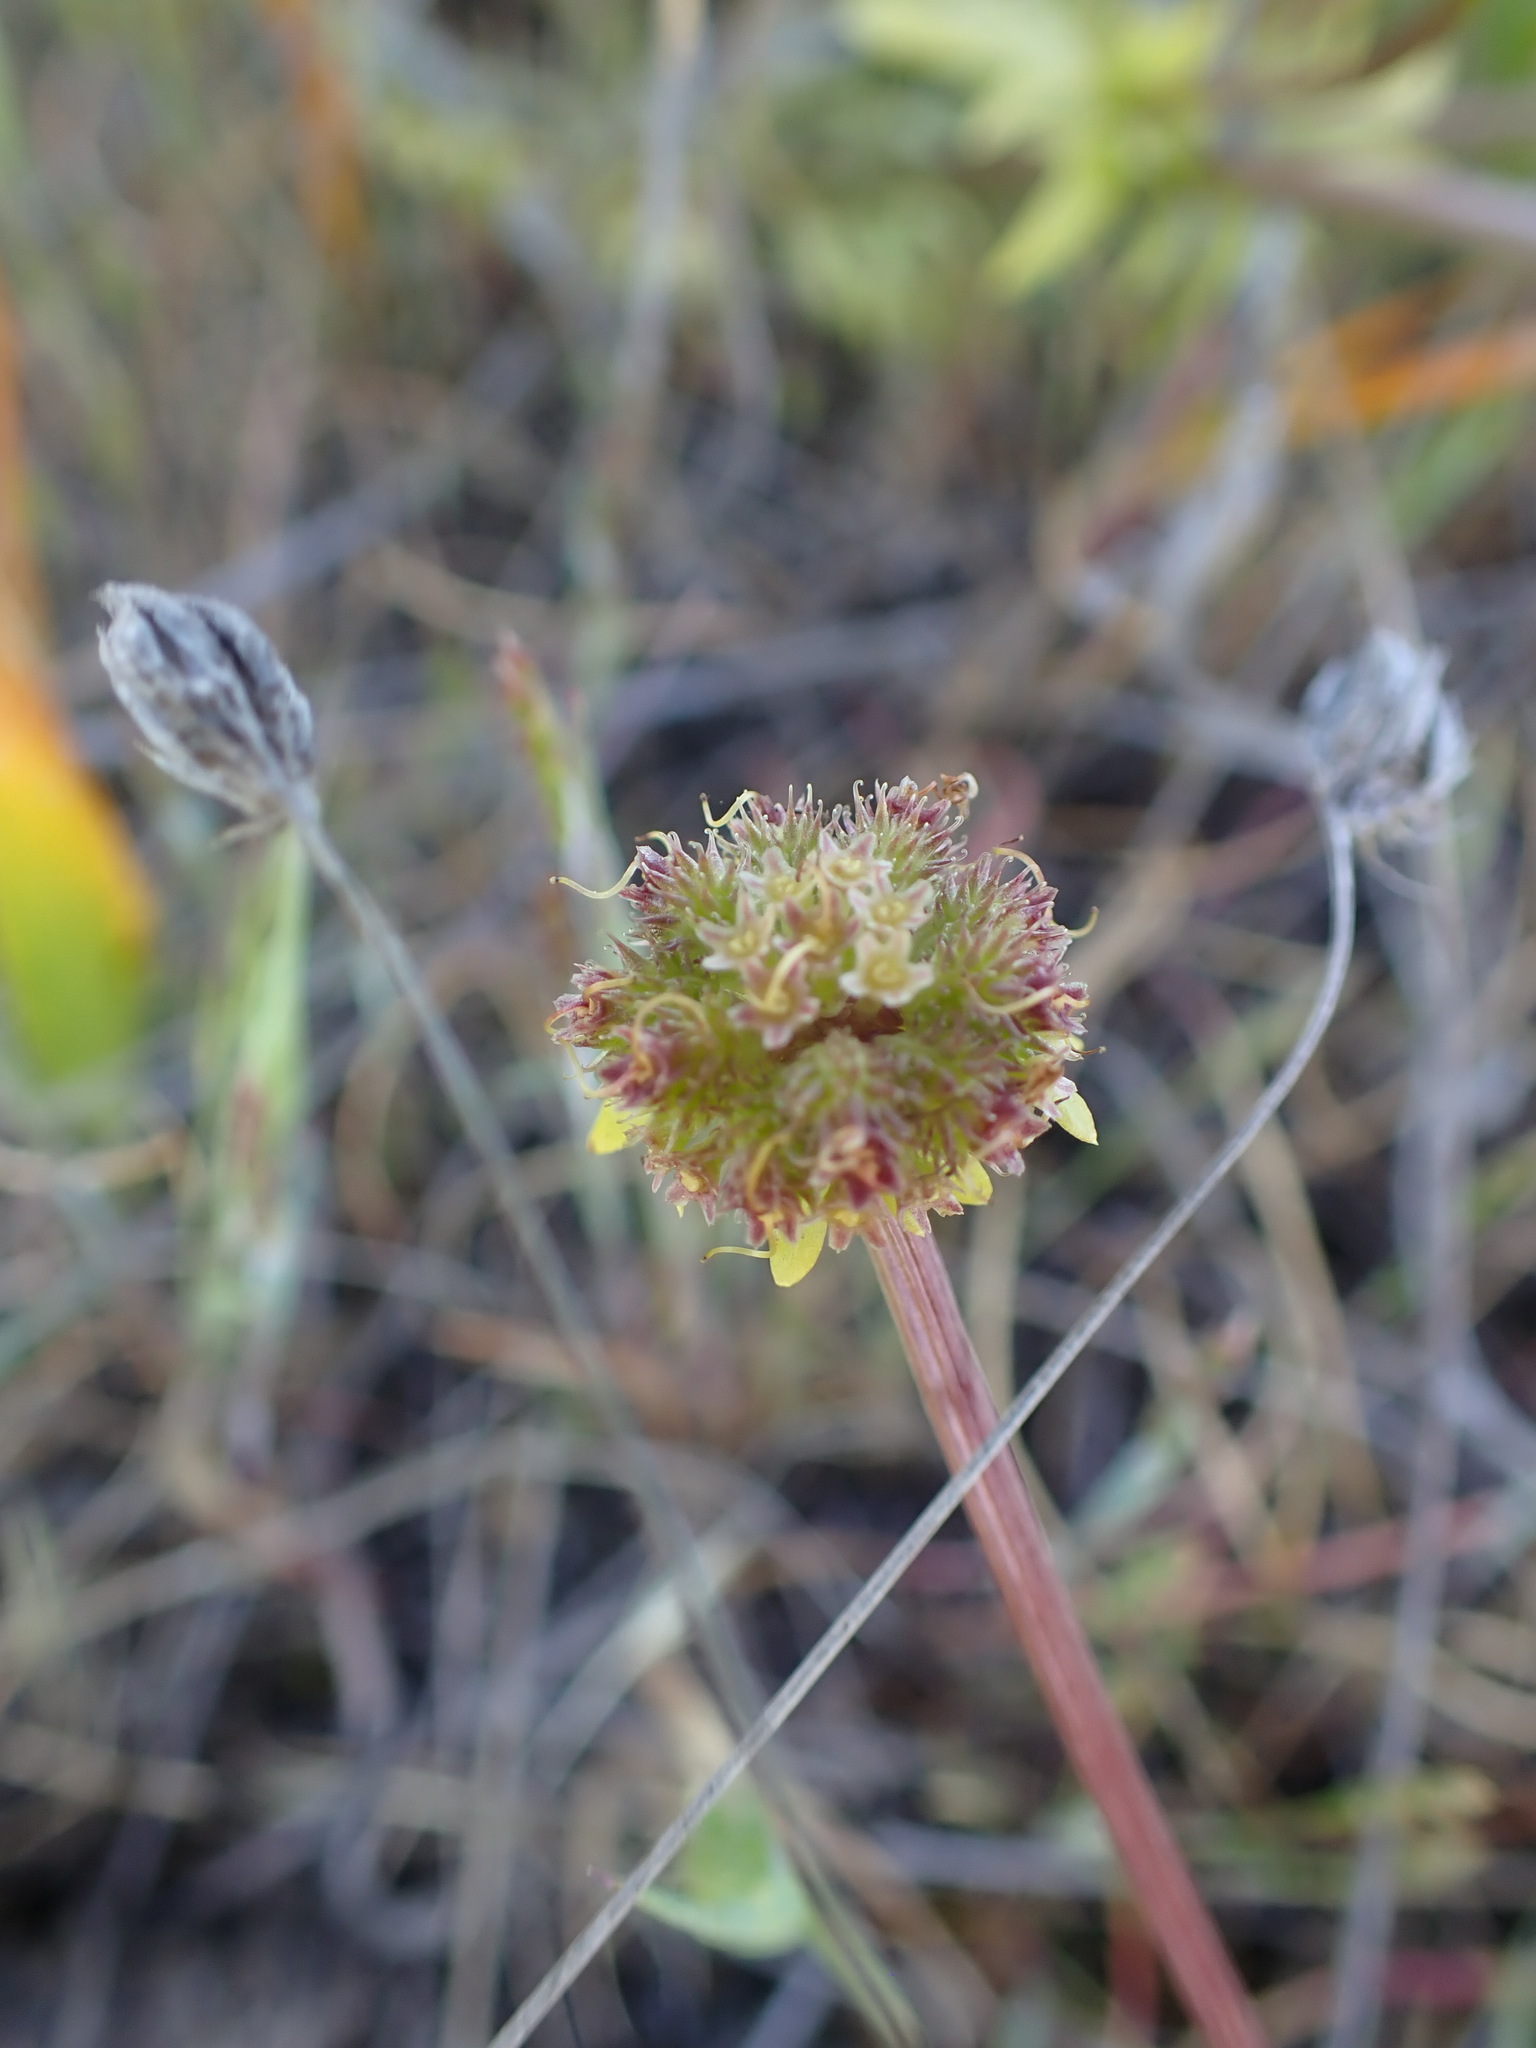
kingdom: Plantae
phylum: Tracheophyta
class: Magnoliopsida
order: Apiales
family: Apiaceae
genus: Sanicula
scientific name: Sanicula arctopoides
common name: Footsteps-of-spring
